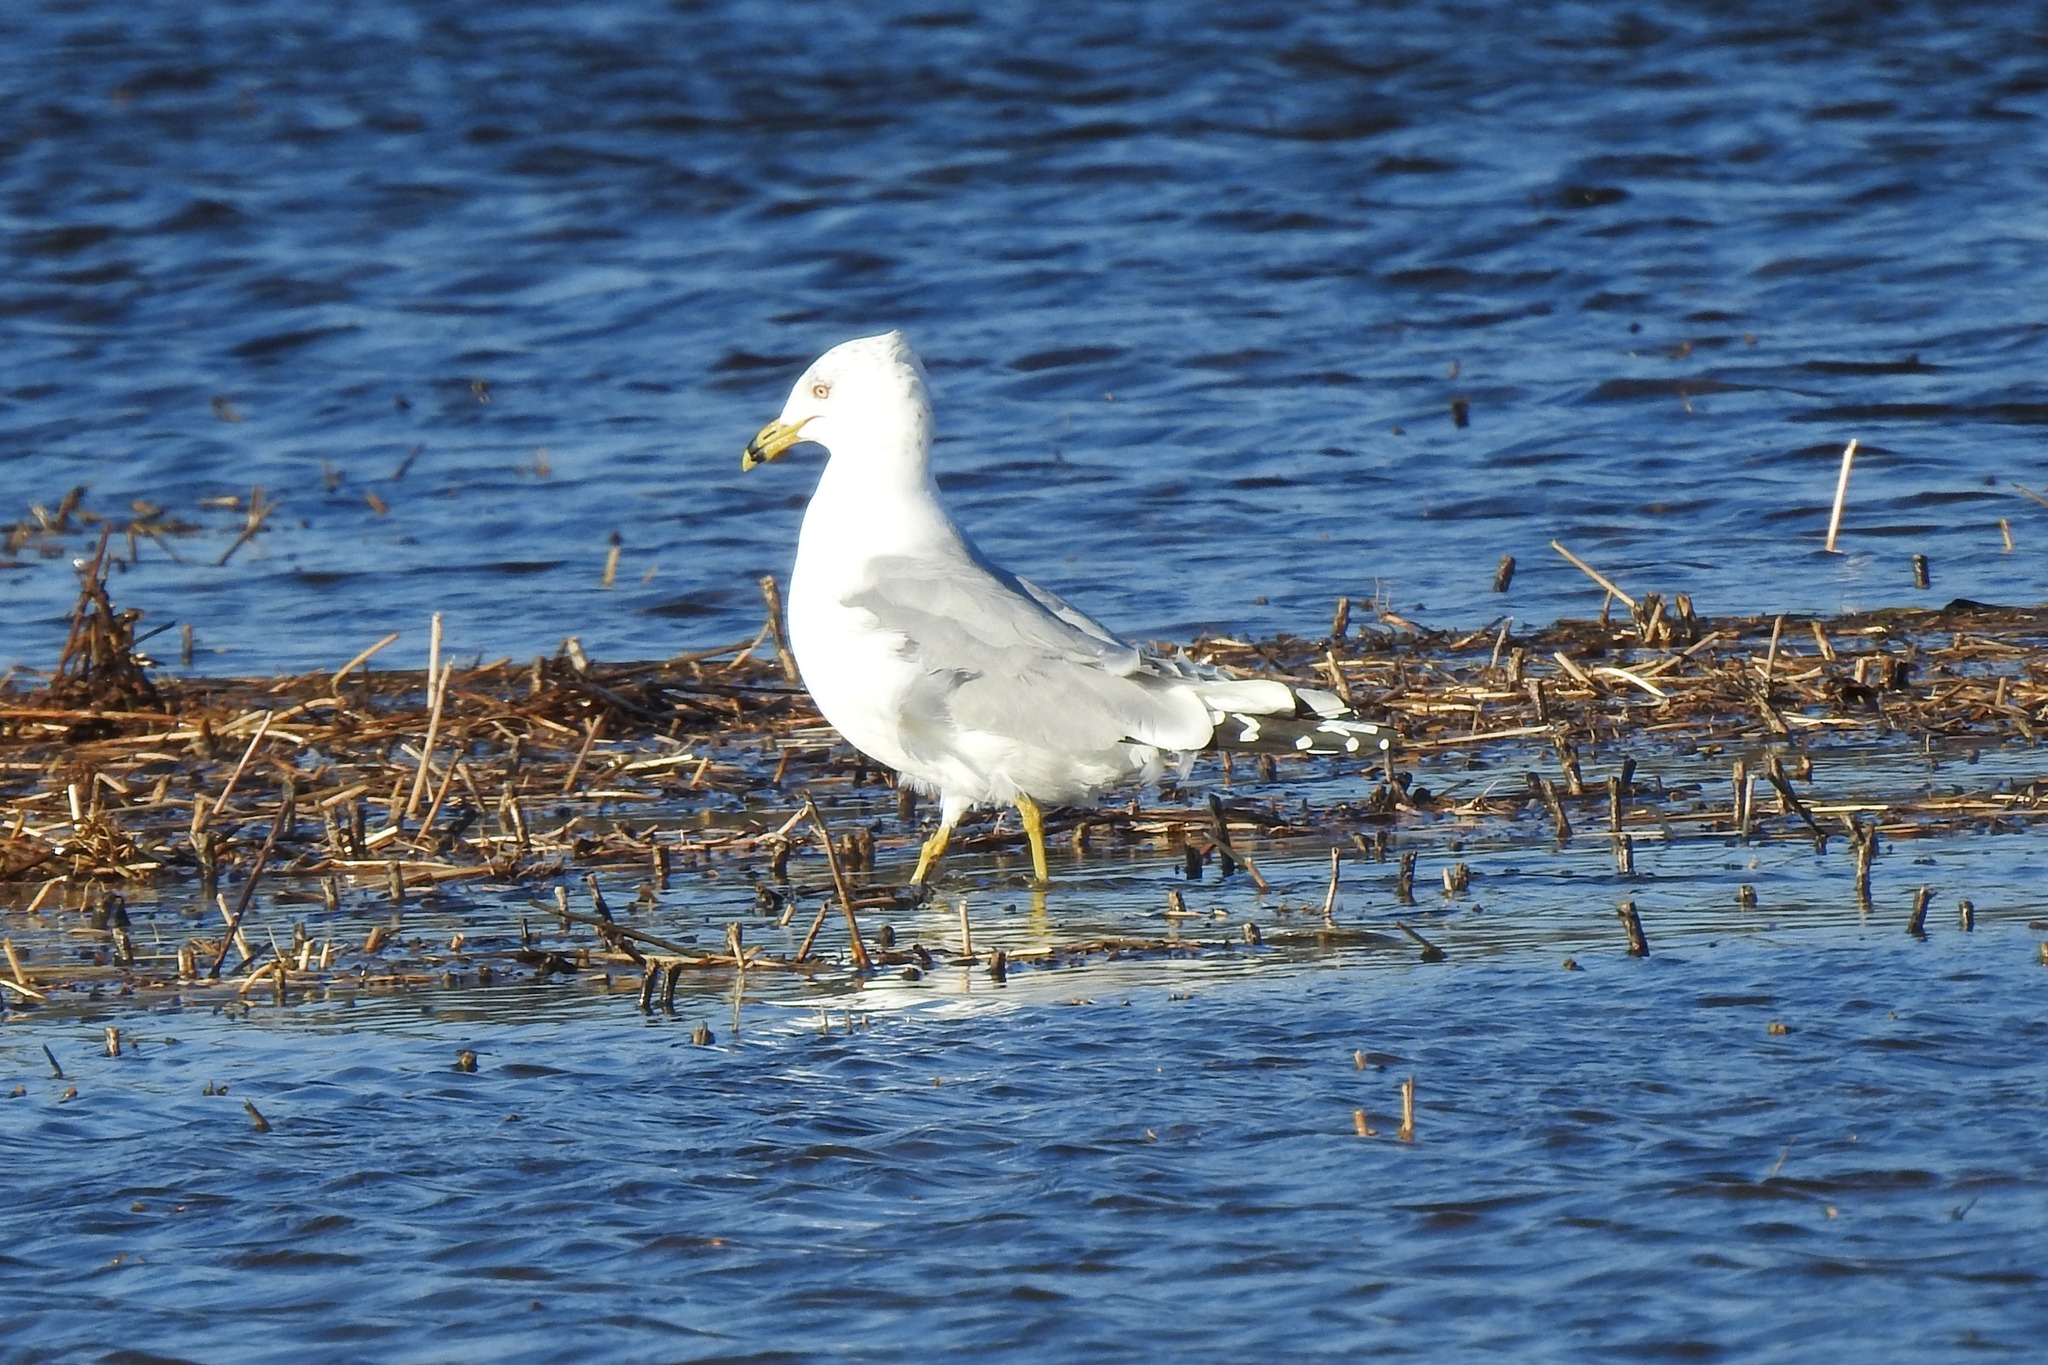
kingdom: Animalia
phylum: Chordata
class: Aves
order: Charadriiformes
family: Laridae
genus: Larus
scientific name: Larus delawarensis
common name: Ring-billed gull
